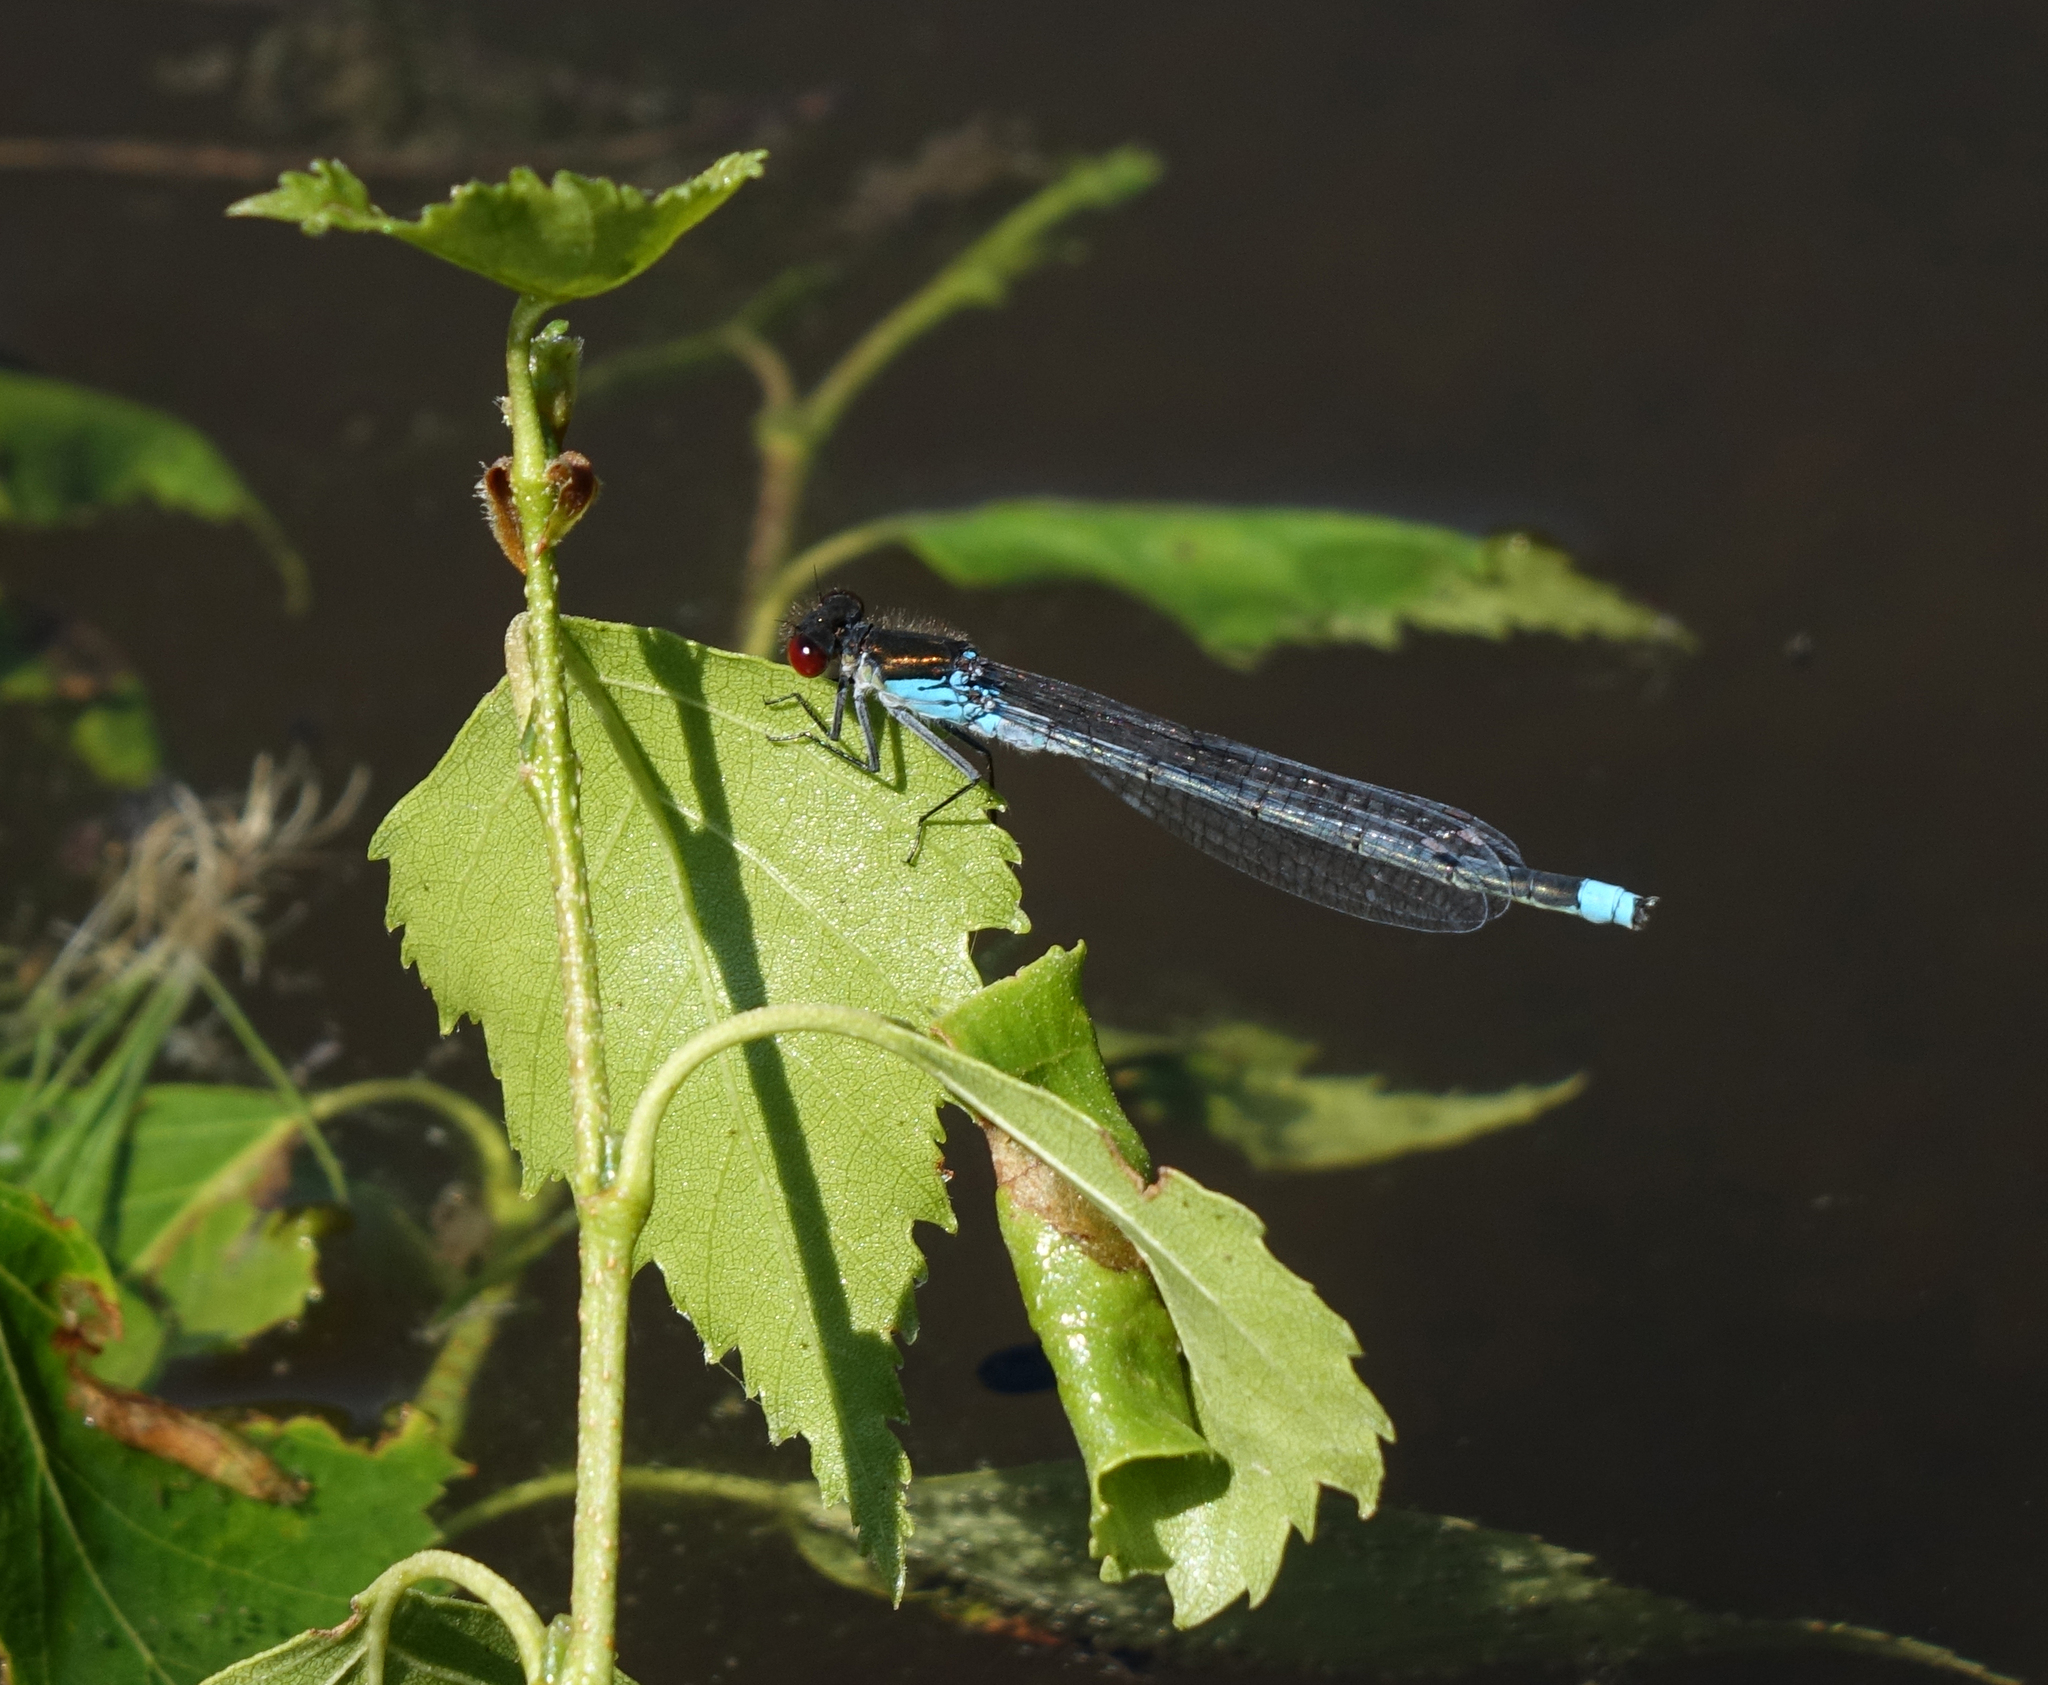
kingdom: Animalia
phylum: Arthropoda
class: Insecta
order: Odonata
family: Coenagrionidae
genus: Erythromma
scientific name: Erythromma najas
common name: Red-eyed damselfly
